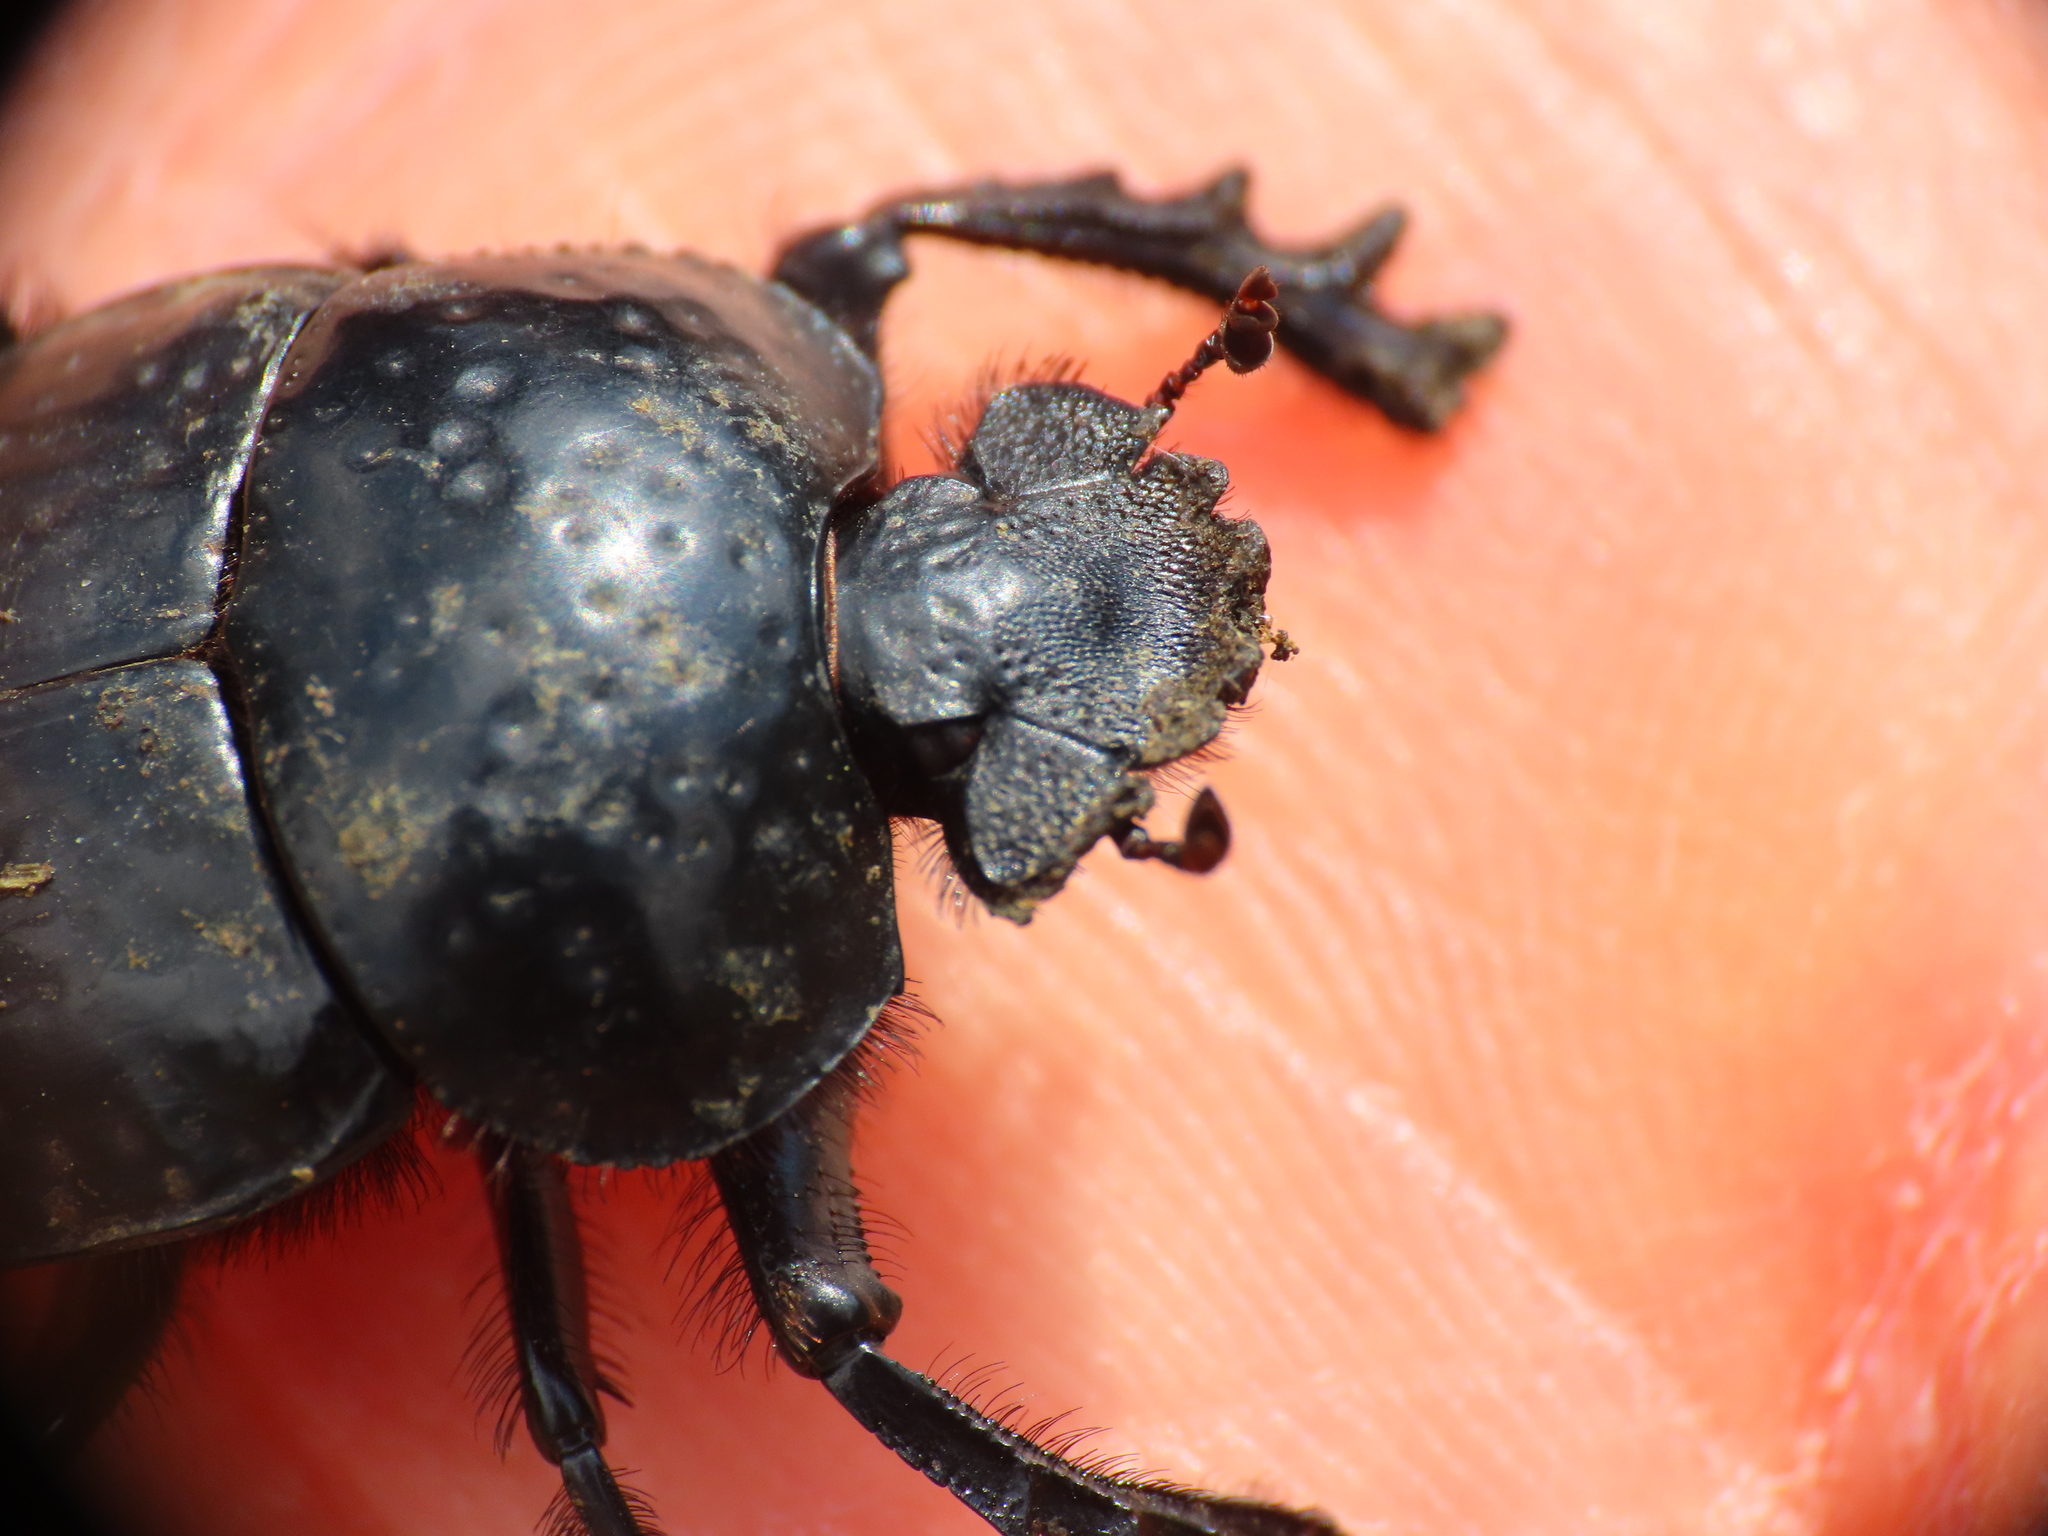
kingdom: Animalia
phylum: Arthropoda
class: Insecta
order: Coleoptera
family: Scarabaeidae
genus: Ateuchetus
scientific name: Ateuchetus
